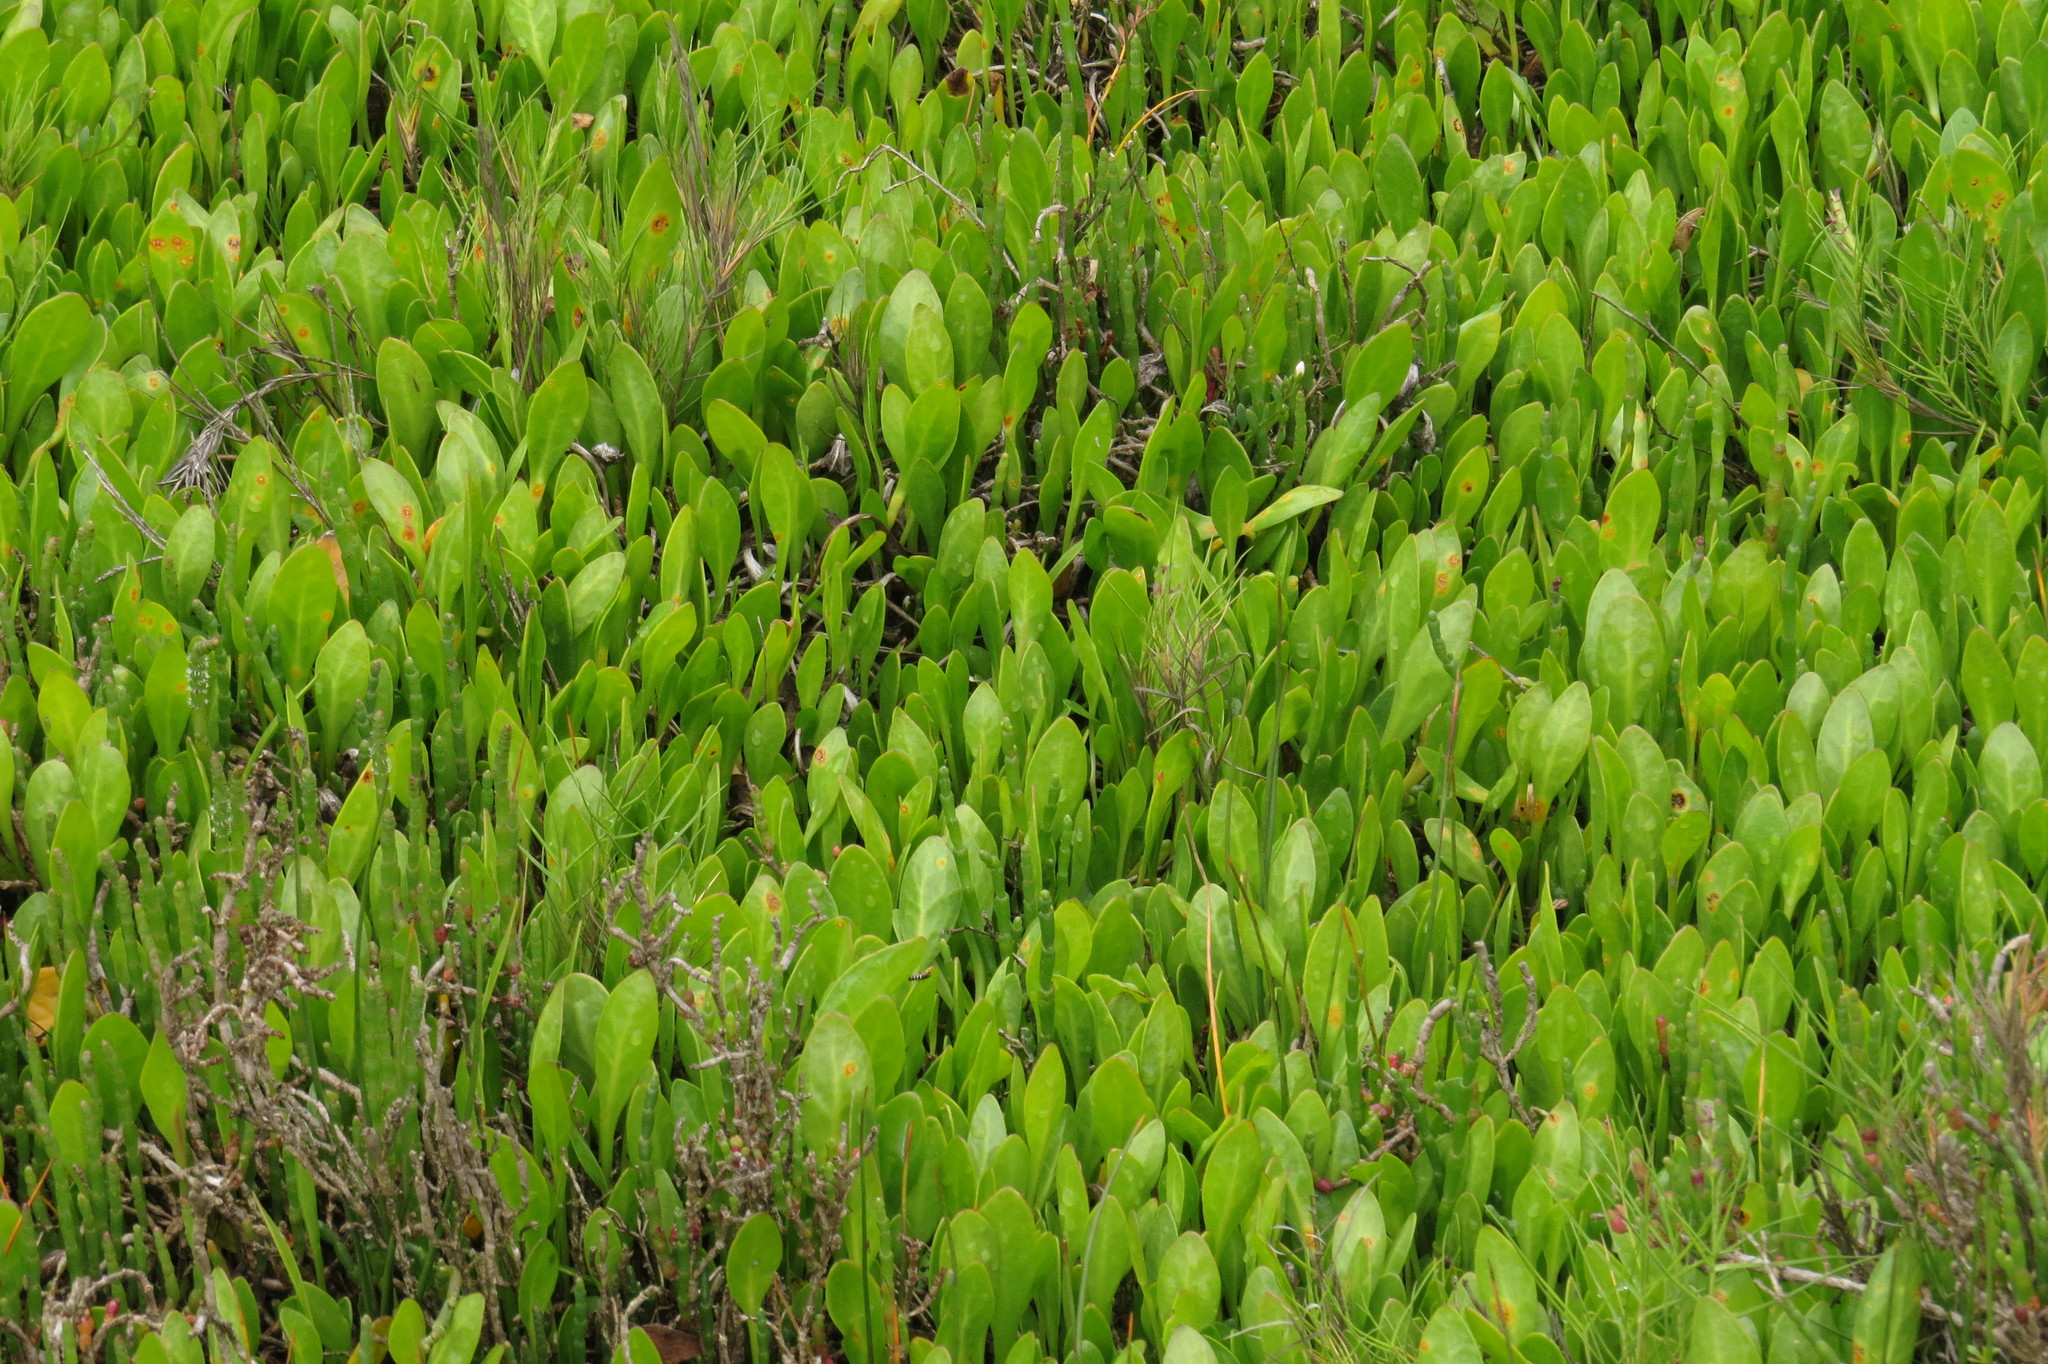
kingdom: Plantae
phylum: Tracheophyta
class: Magnoliopsida
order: Asterales
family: Goodeniaceae
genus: Goodenia
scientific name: Goodenia radicans
